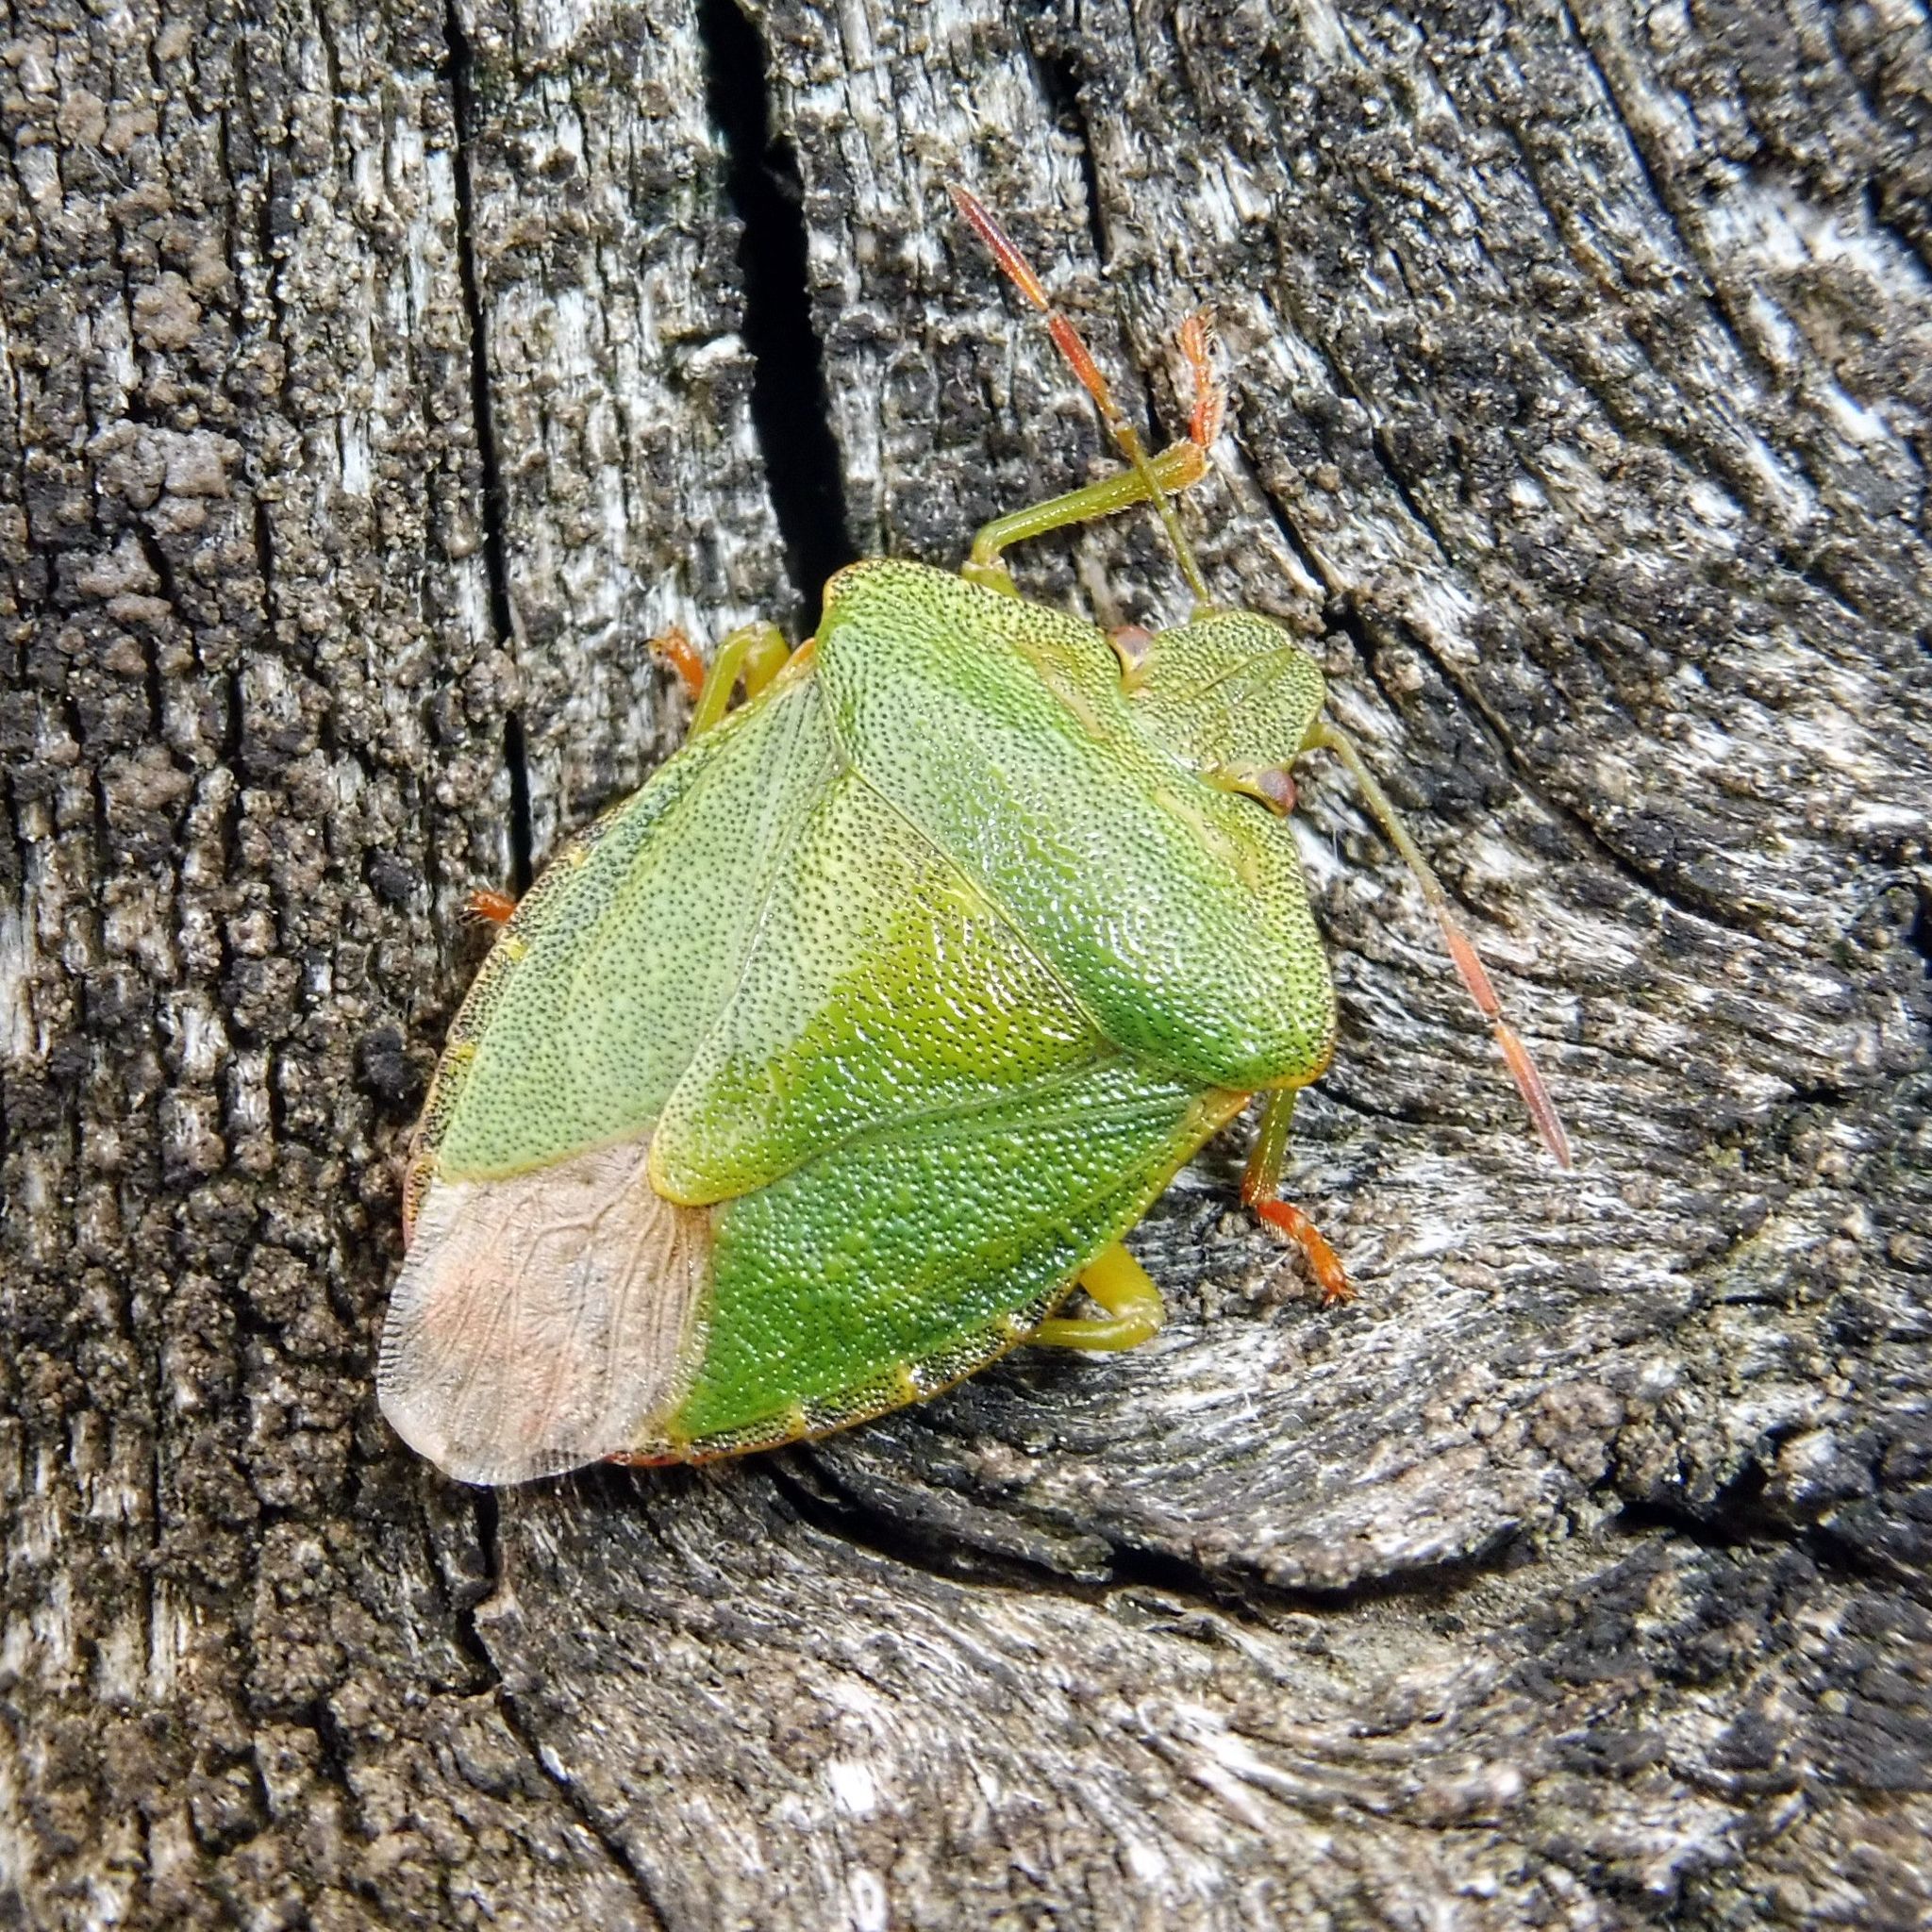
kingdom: Animalia
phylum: Arthropoda
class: Insecta
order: Hemiptera
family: Pentatomidae
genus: Palomena
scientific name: Palomena prasina
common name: Green shieldbug
